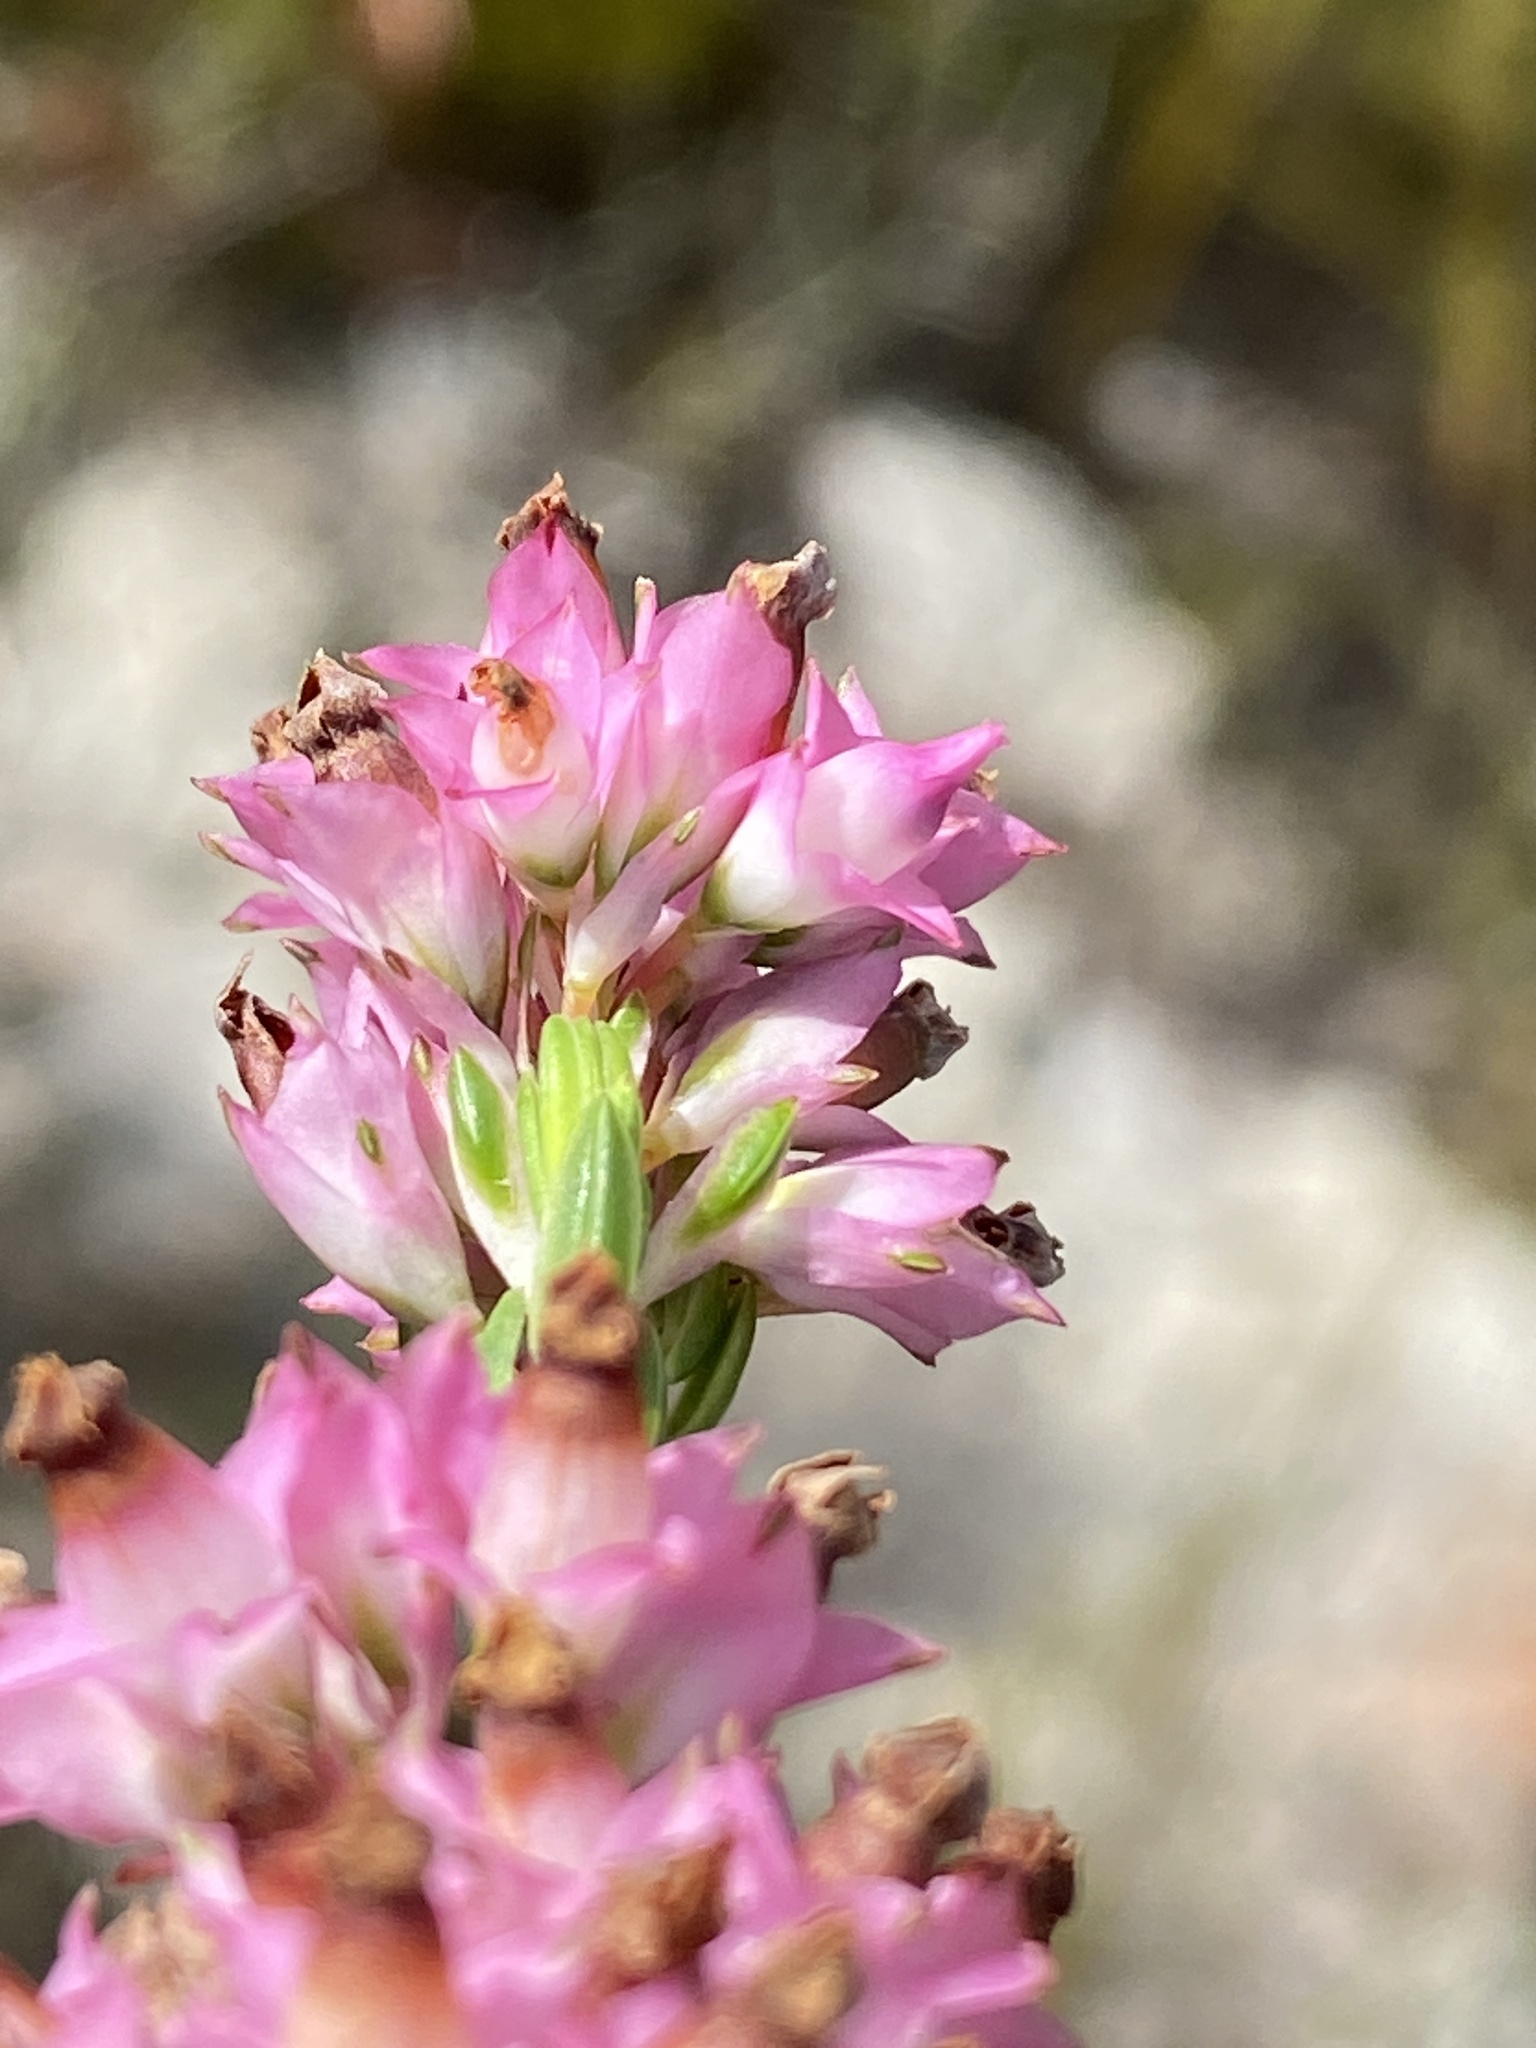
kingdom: Plantae
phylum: Tracheophyta
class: Magnoliopsida
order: Ericales
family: Ericaceae
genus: Erica
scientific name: Erica corifolia
